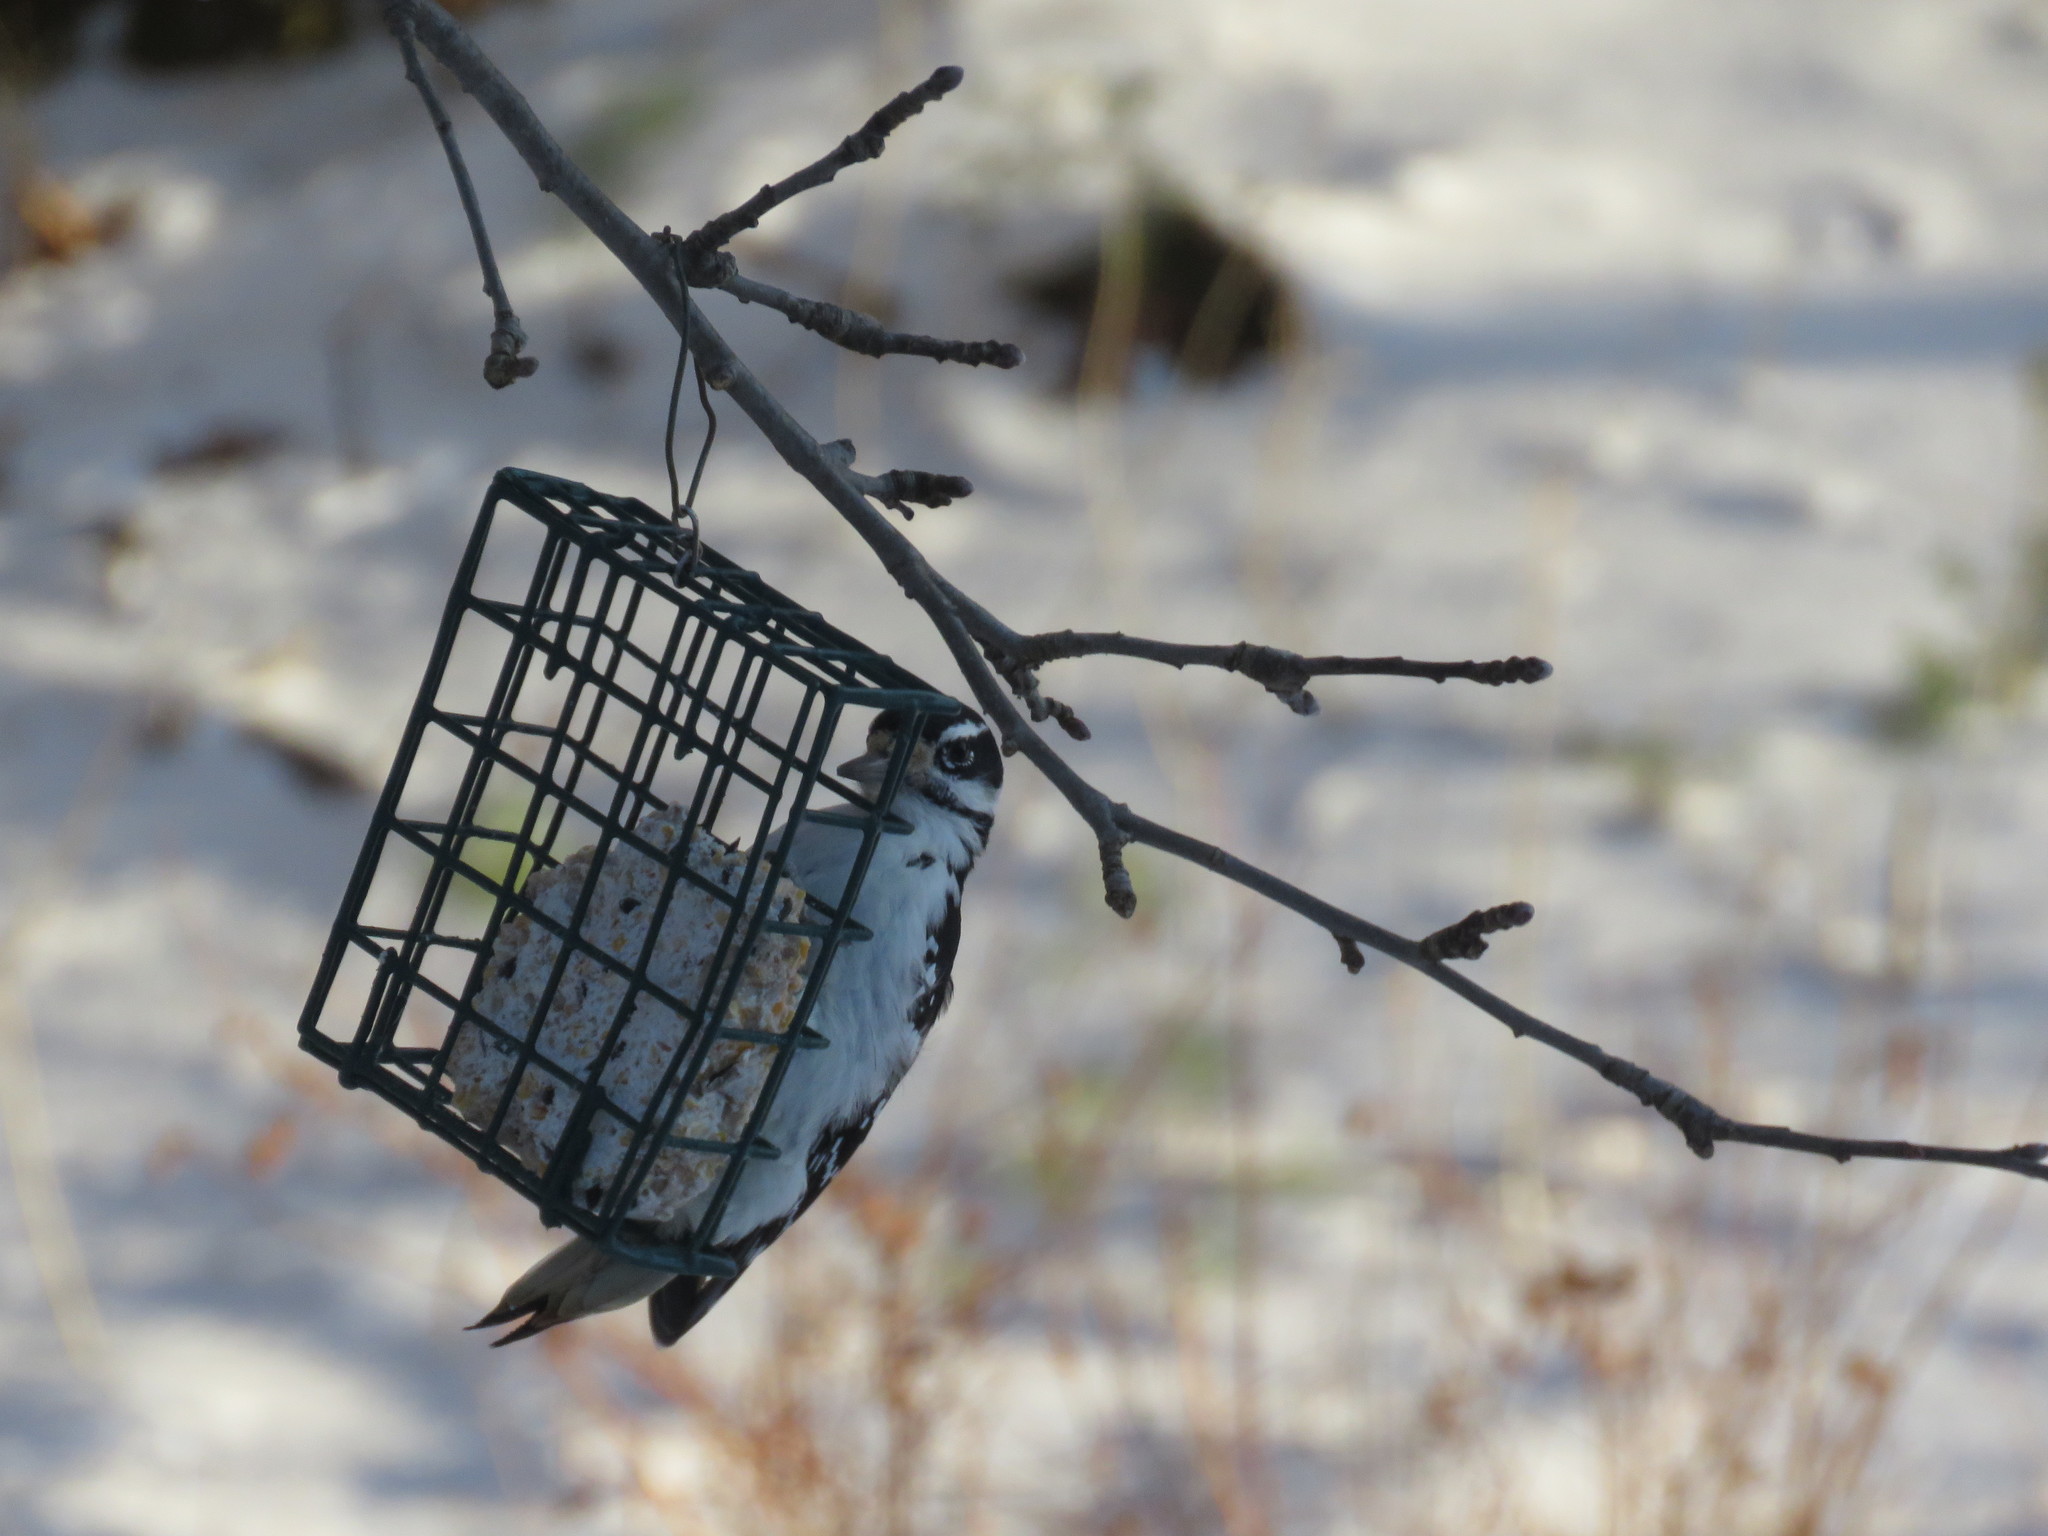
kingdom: Animalia
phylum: Chordata
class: Aves
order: Piciformes
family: Picidae
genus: Leuconotopicus
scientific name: Leuconotopicus villosus
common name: Hairy woodpecker
